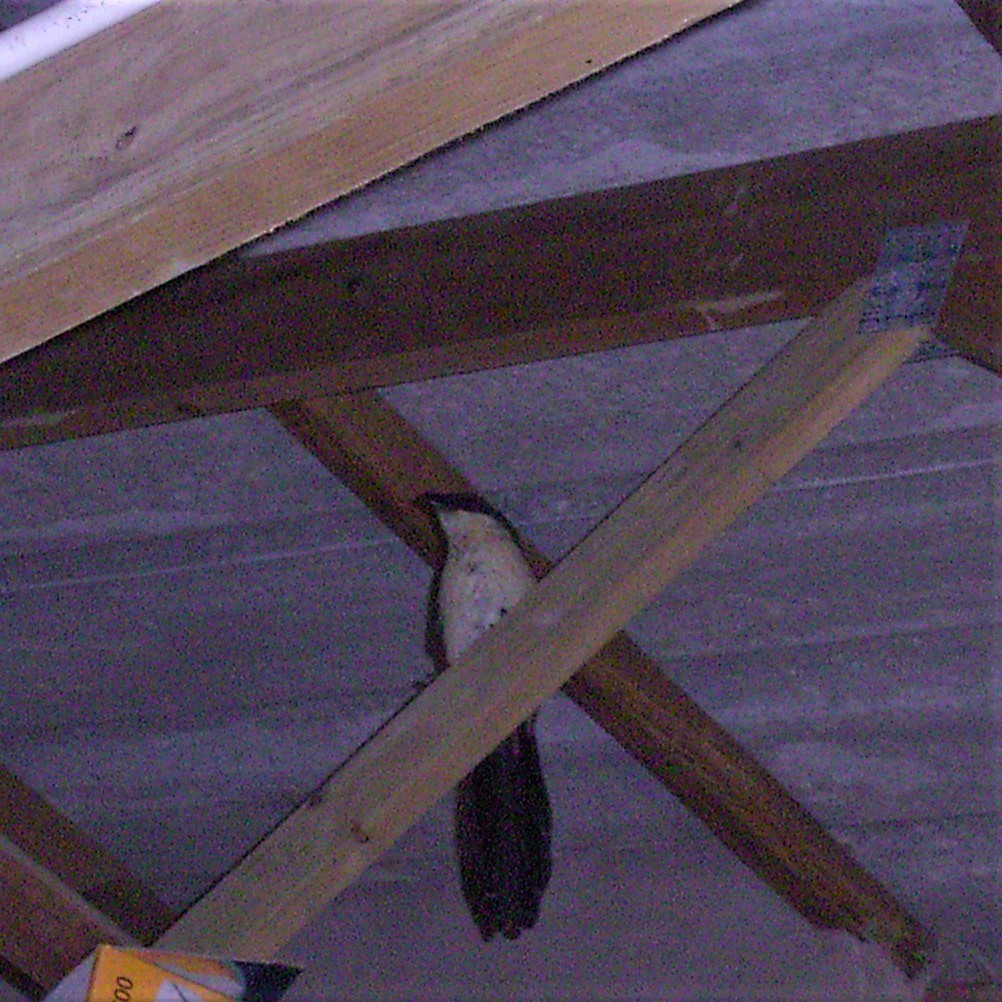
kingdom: Animalia
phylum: Chordata
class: Aves
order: Cuculiformes
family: Cuculidae
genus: Centropus
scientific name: Centropus superciliosus
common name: White-browed coucal
